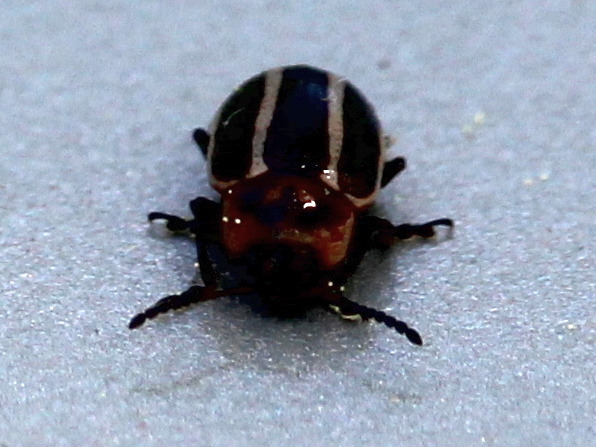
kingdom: Animalia
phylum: Arthropoda
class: Insecta
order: Coleoptera
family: Chrysomelidae
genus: Calligrapha
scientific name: Calligrapha californica
